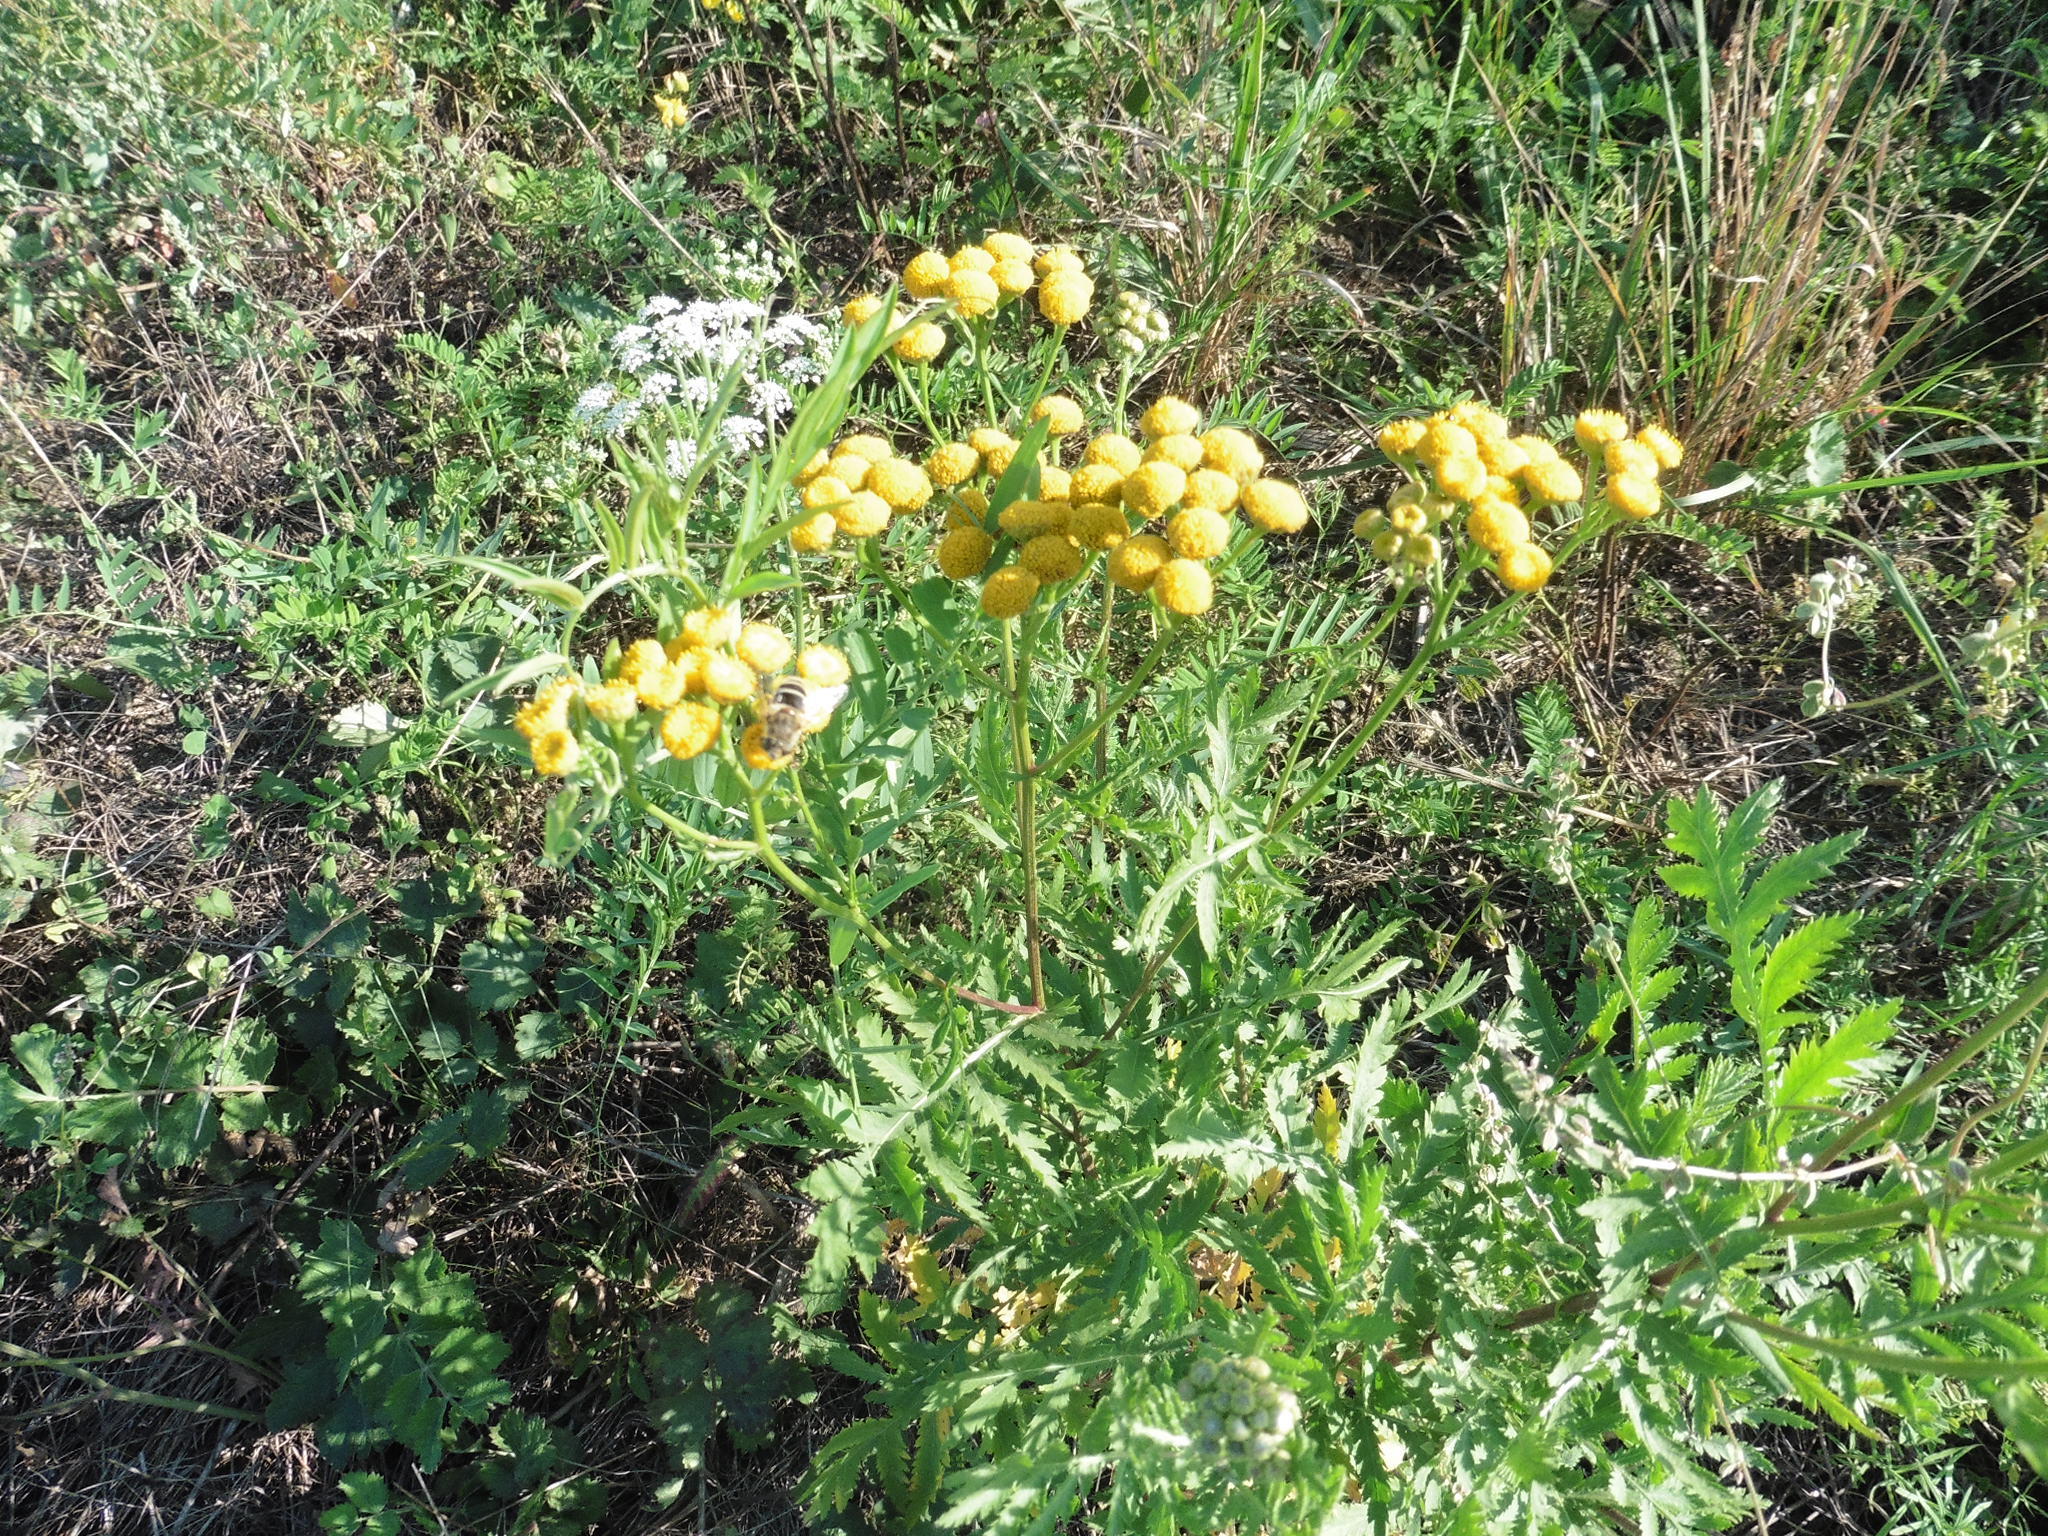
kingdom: Plantae
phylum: Tracheophyta
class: Magnoliopsida
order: Asterales
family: Asteraceae
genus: Tanacetum
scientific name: Tanacetum vulgare
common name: Common tansy
